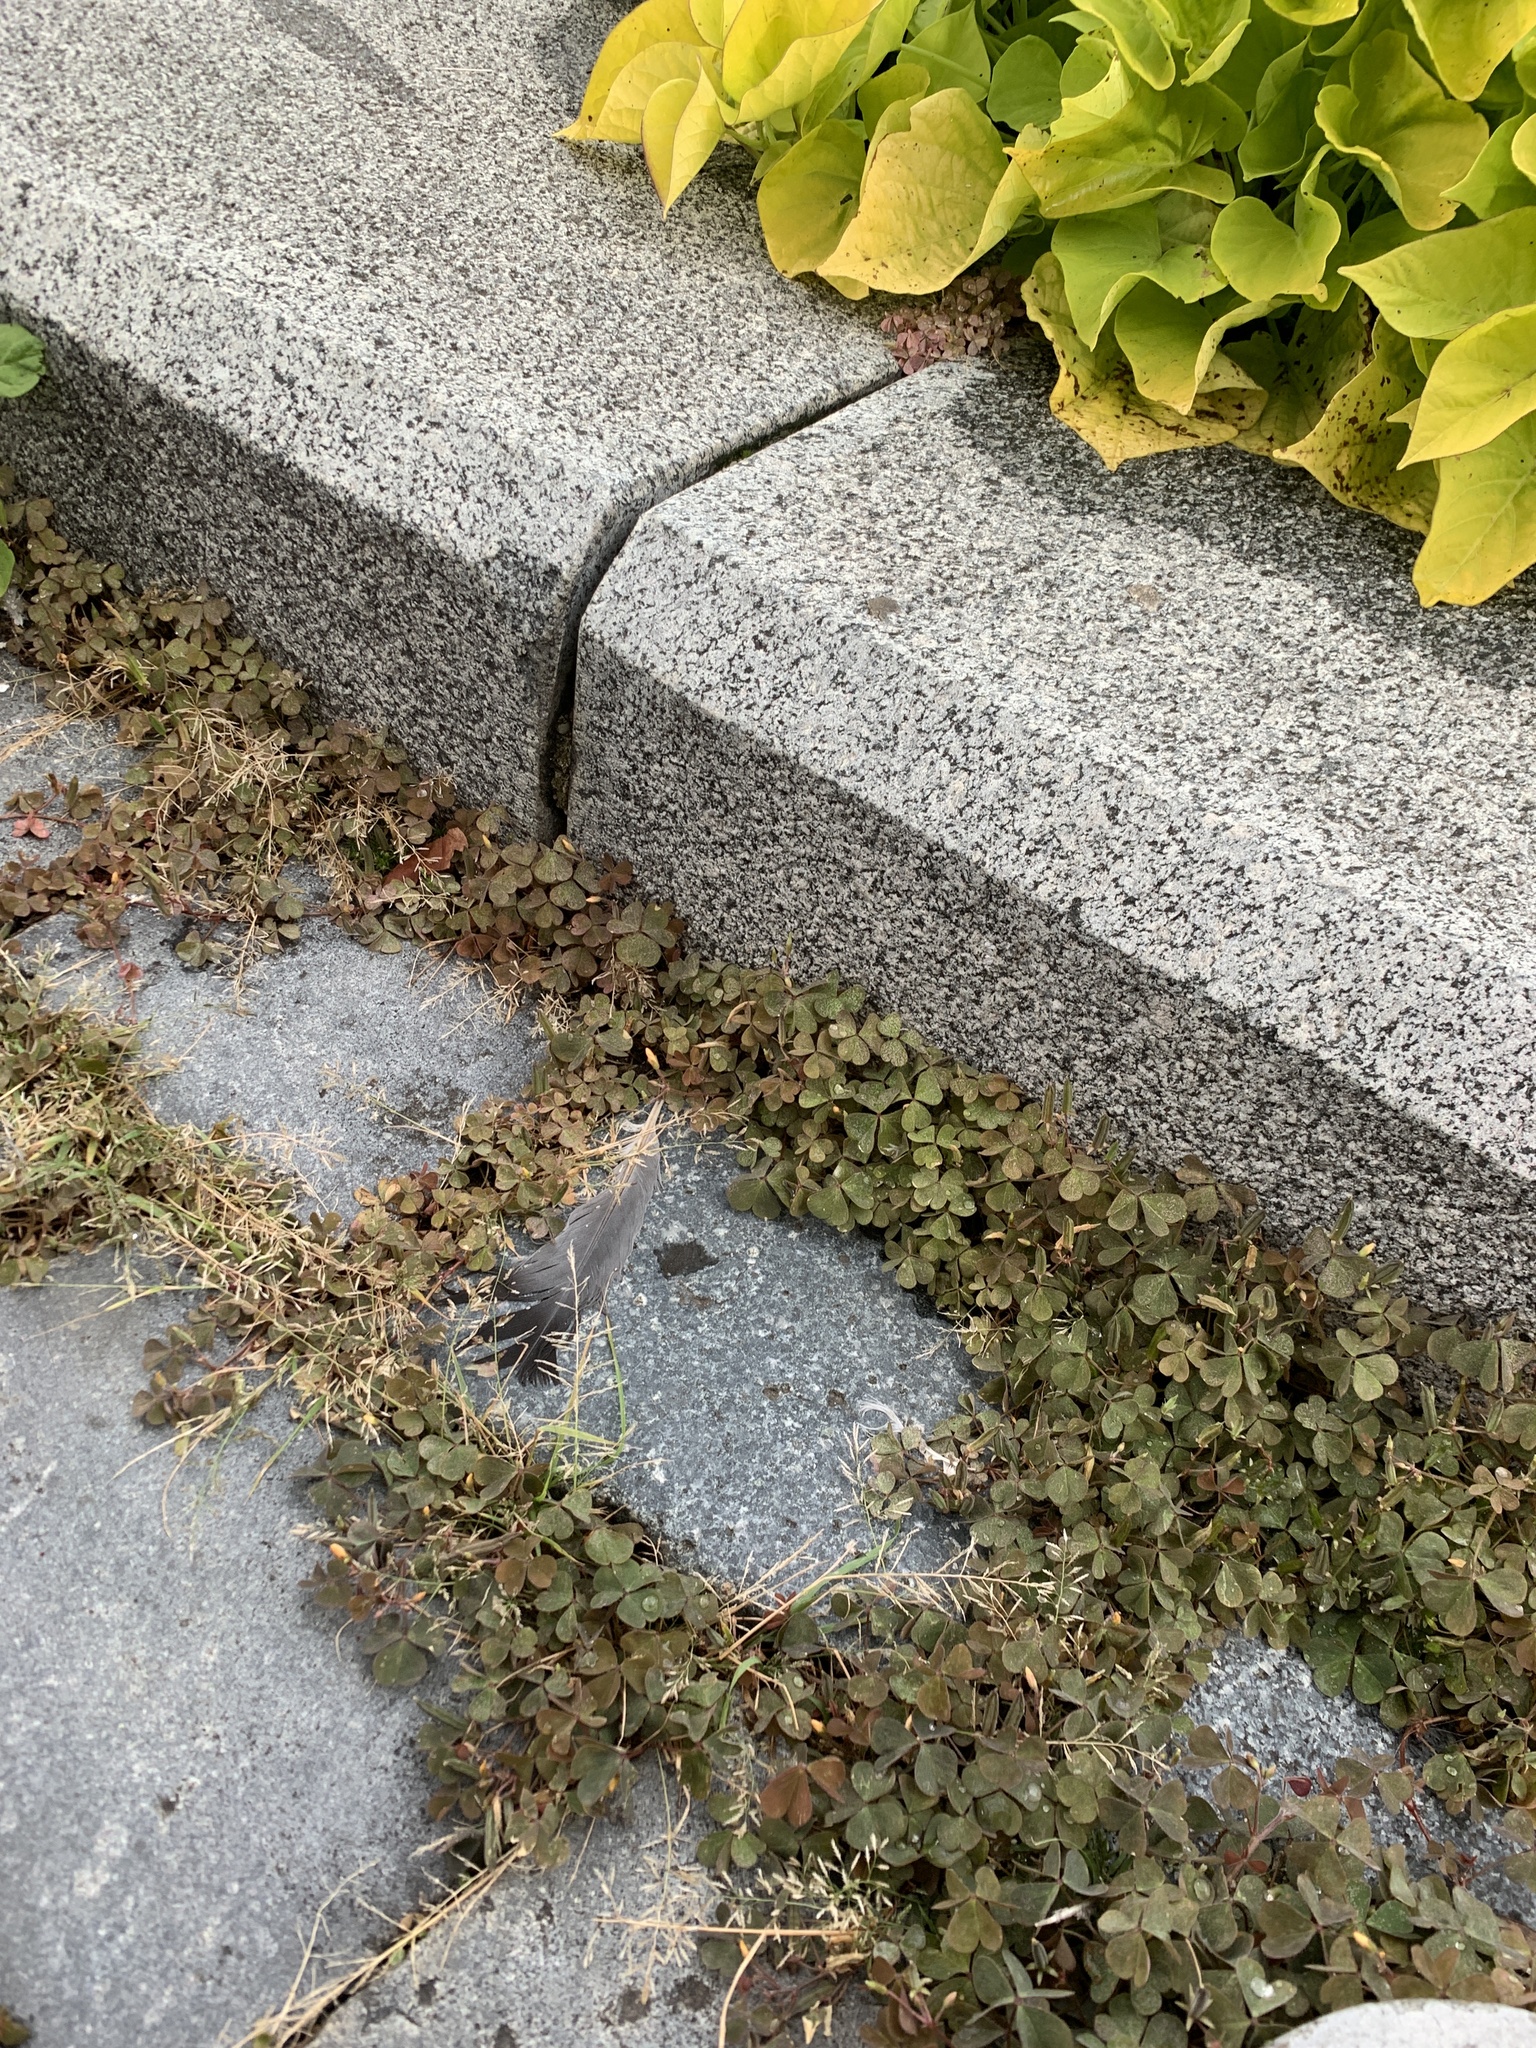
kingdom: Plantae
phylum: Tracheophyta
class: Magnoliopsida
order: Oxalidales
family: Oxalidaceae
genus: Oxalis
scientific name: Oxalis corniculata
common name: Procumbent yellow-sorrel
